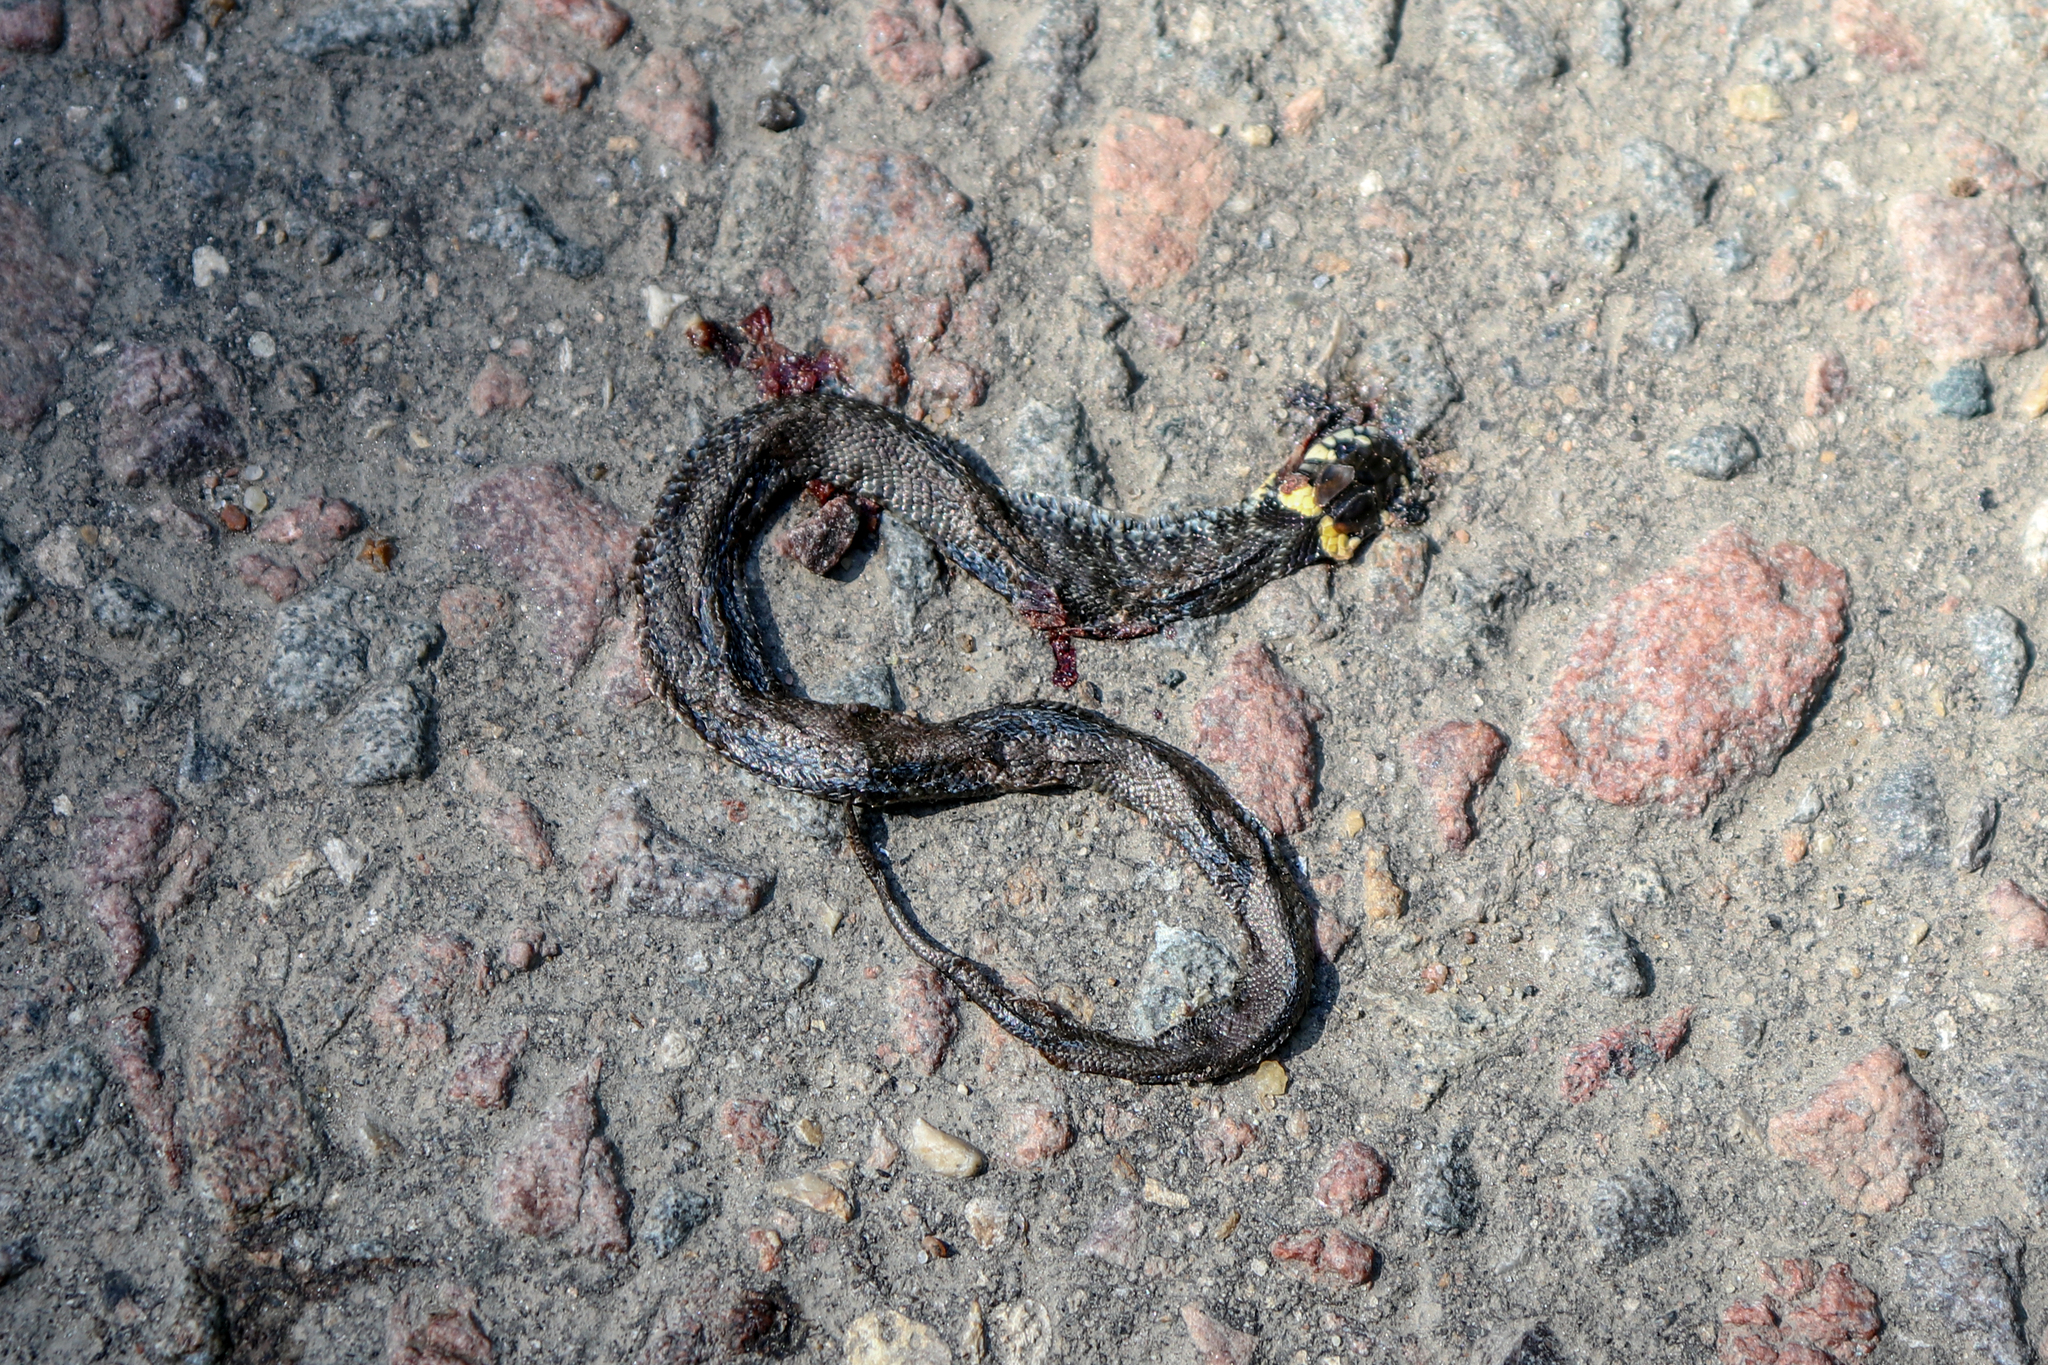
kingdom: Animalia
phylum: Chordata
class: Squamata
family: Colubridae
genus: Natrix
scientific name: Natrix natrix
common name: Grass snake
